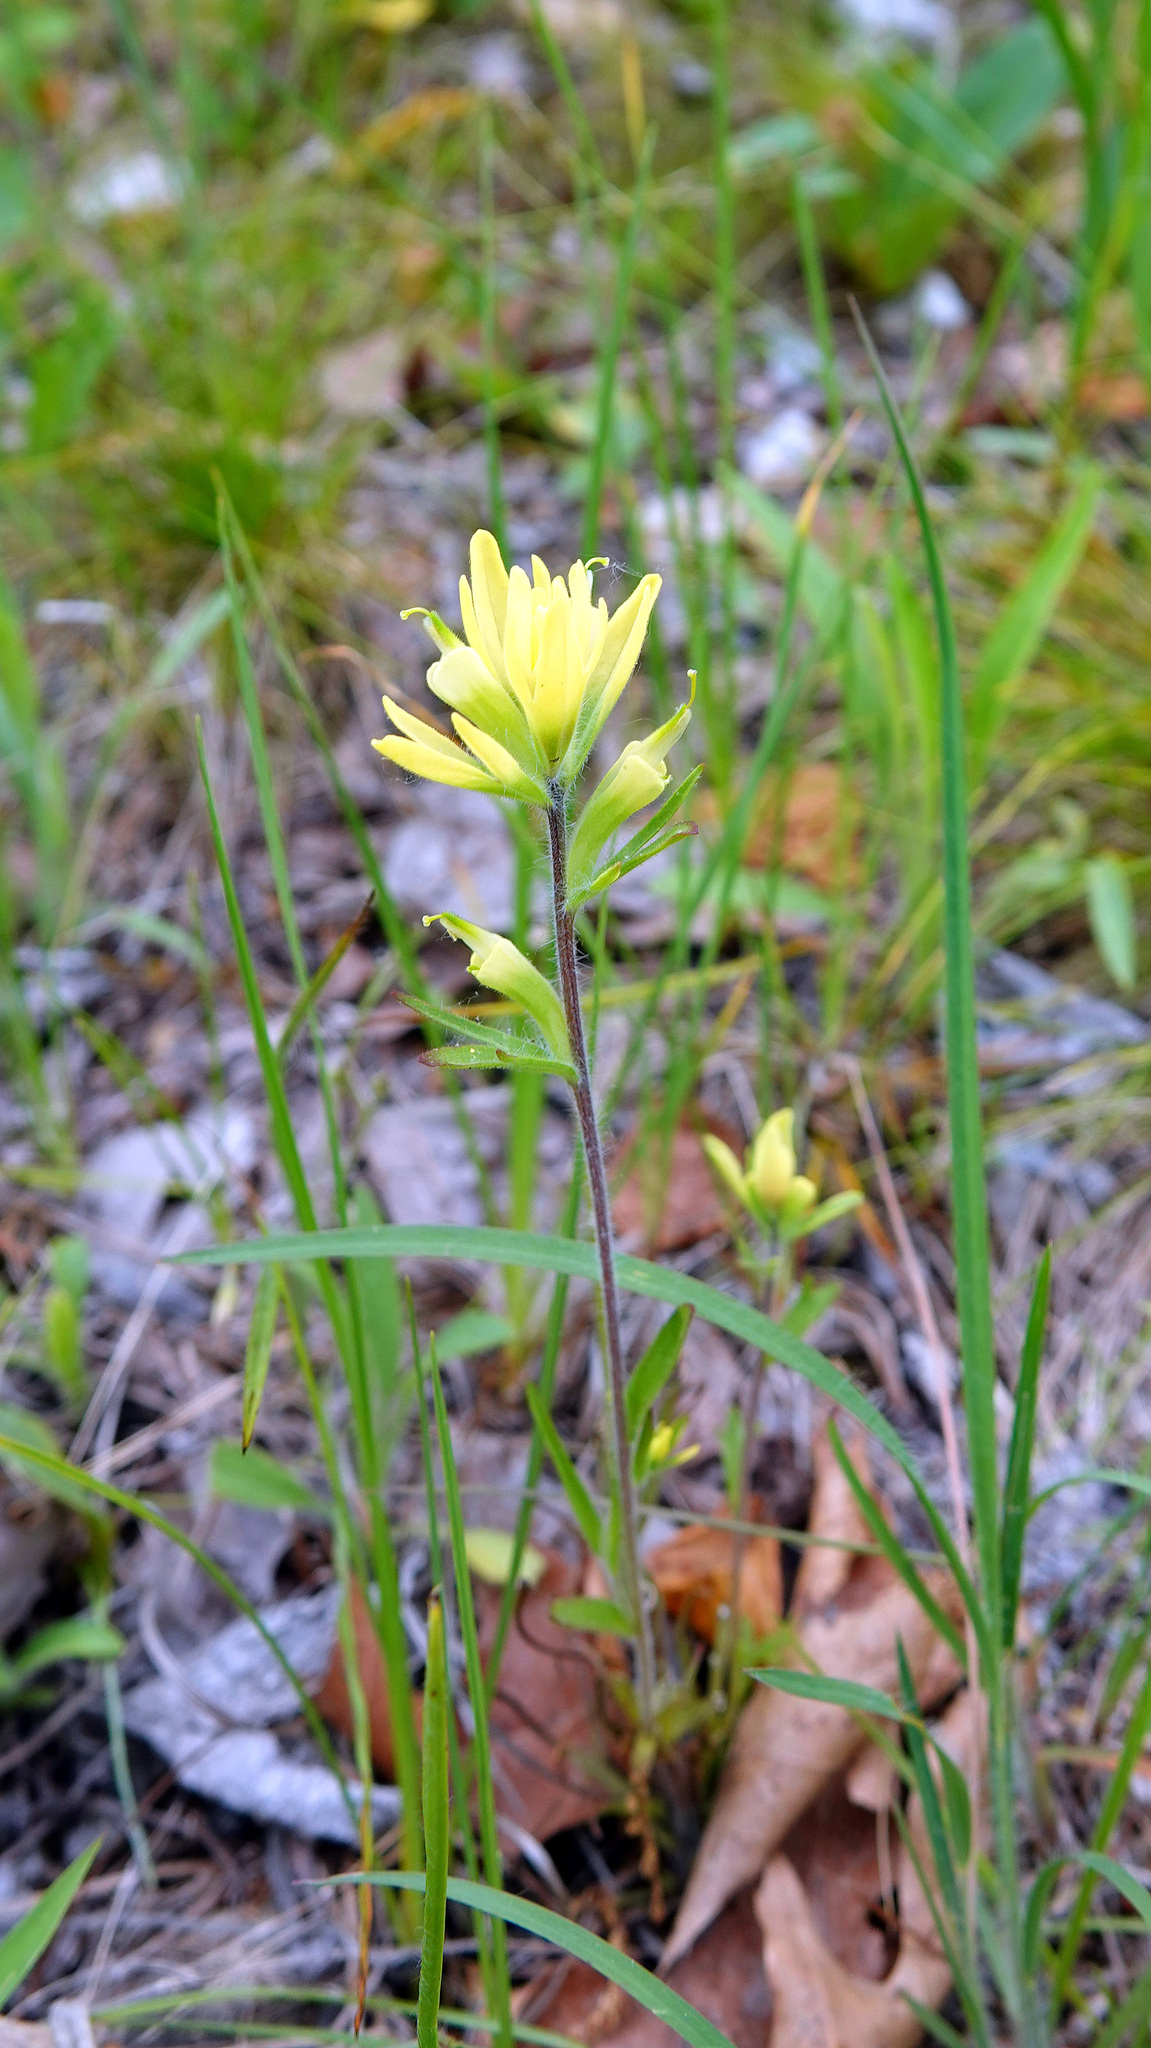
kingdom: Plantae
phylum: Tracheophyta
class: Magnoliopsida
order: Lamiales
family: Orobanchaceae
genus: Castilleja
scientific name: Castilleja coccinea
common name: Scarlet paintbrush
